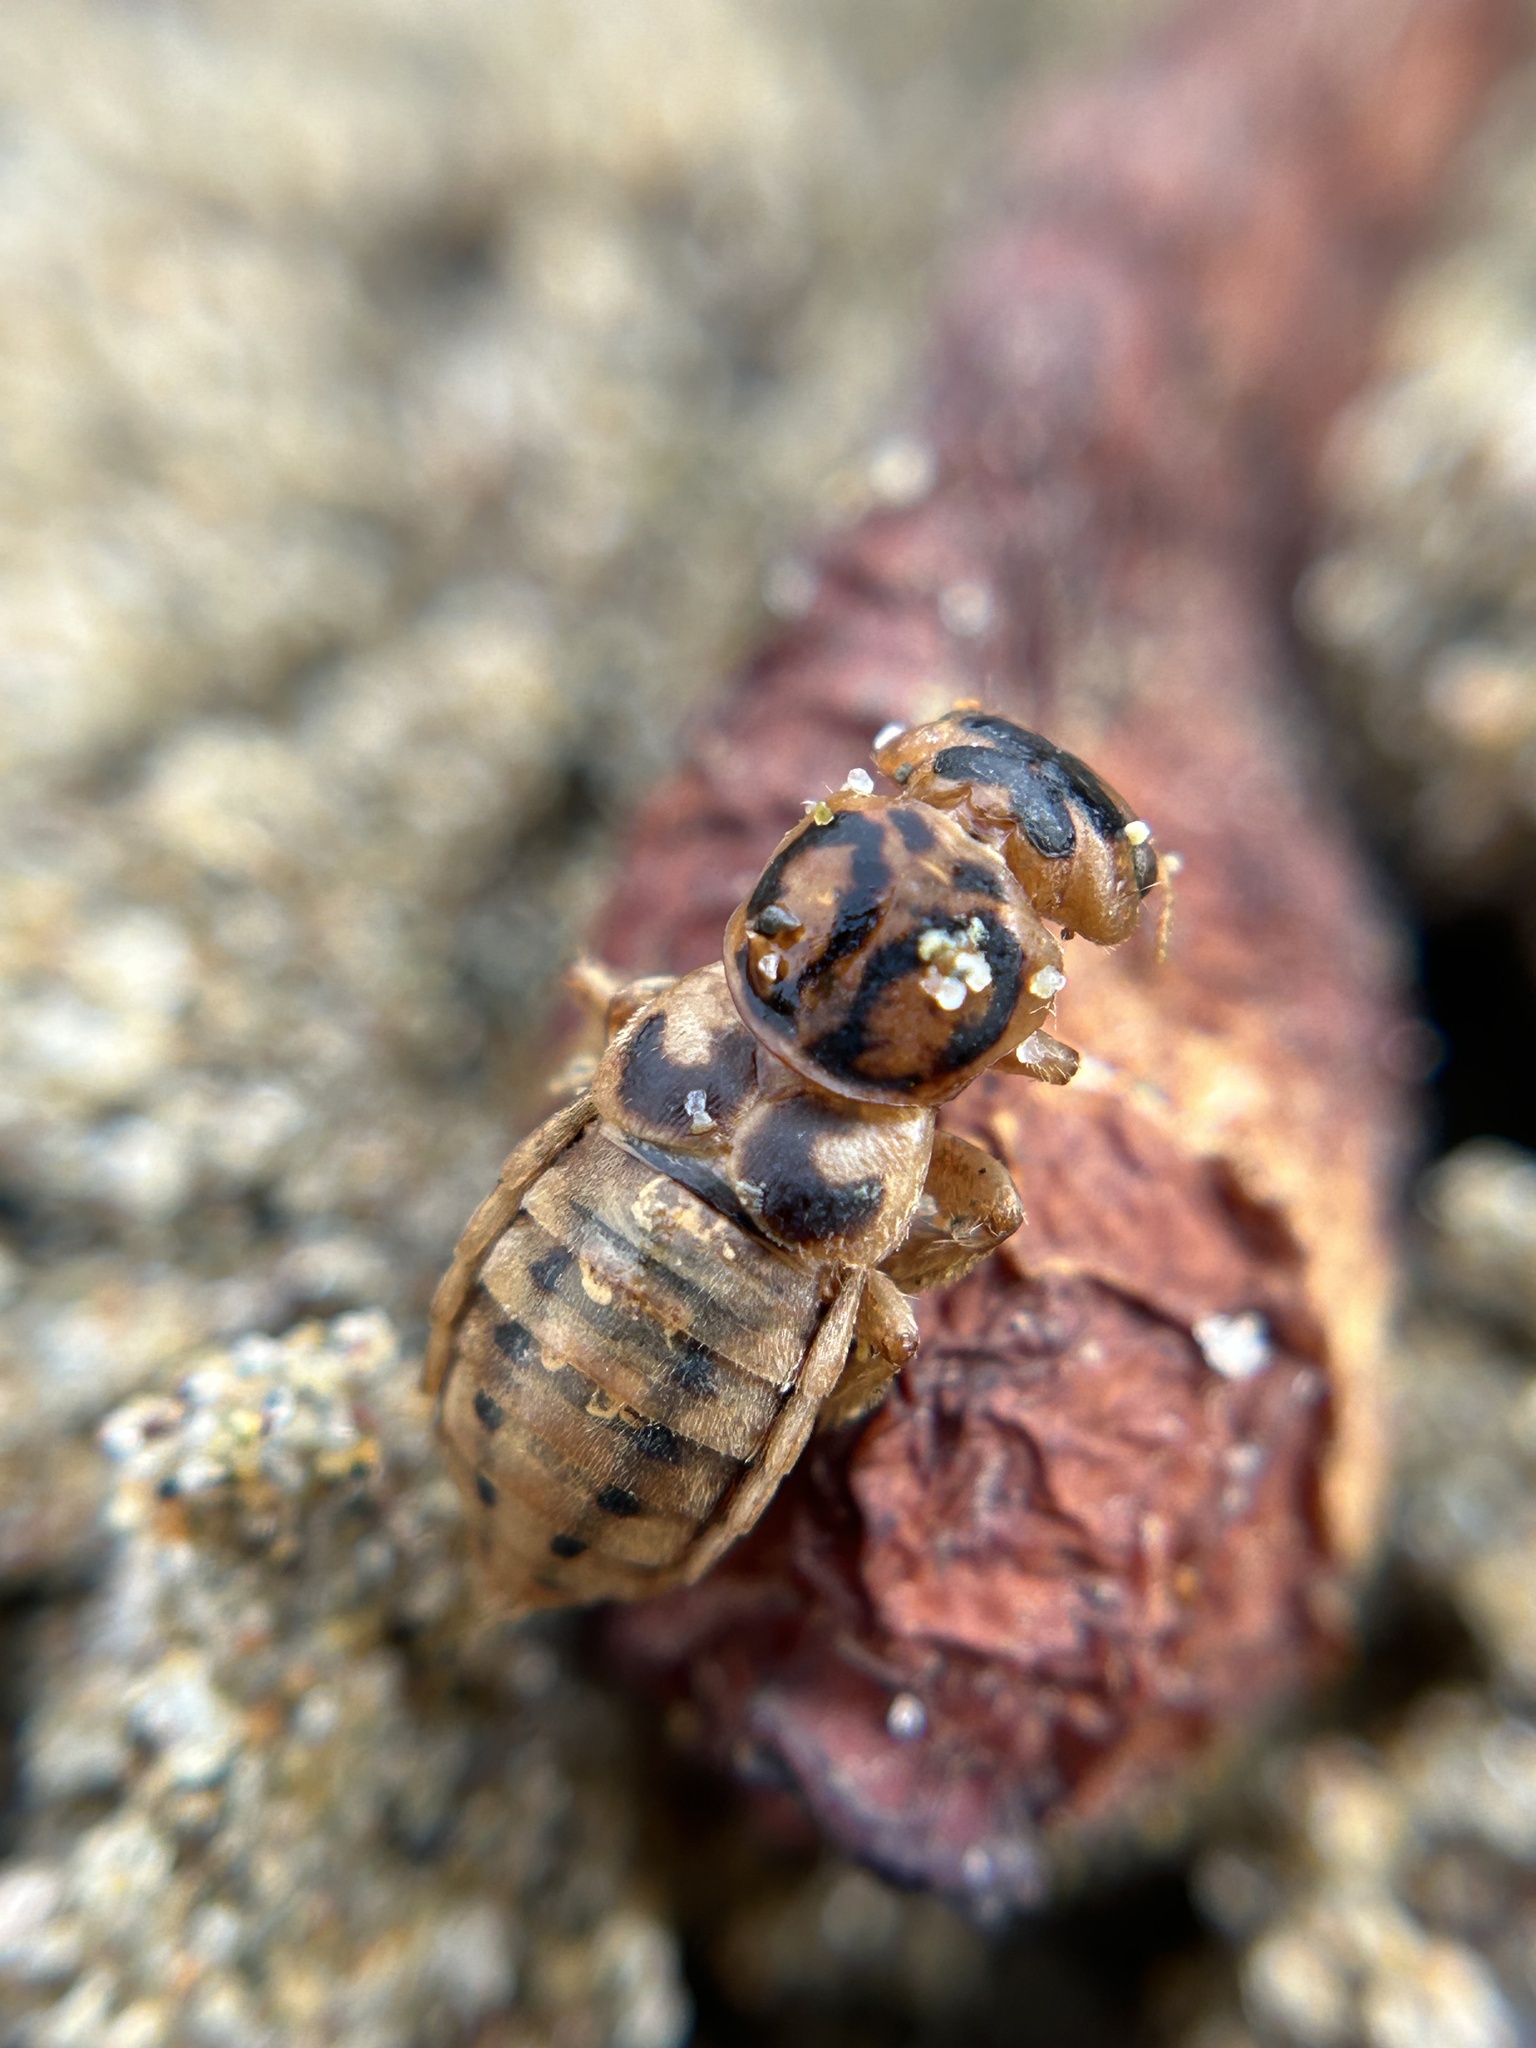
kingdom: Animalia
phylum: Arthropoda
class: Insecta
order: Coleoptera
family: Staphylinidae
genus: Thinopinus
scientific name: Thinopinus pictus
